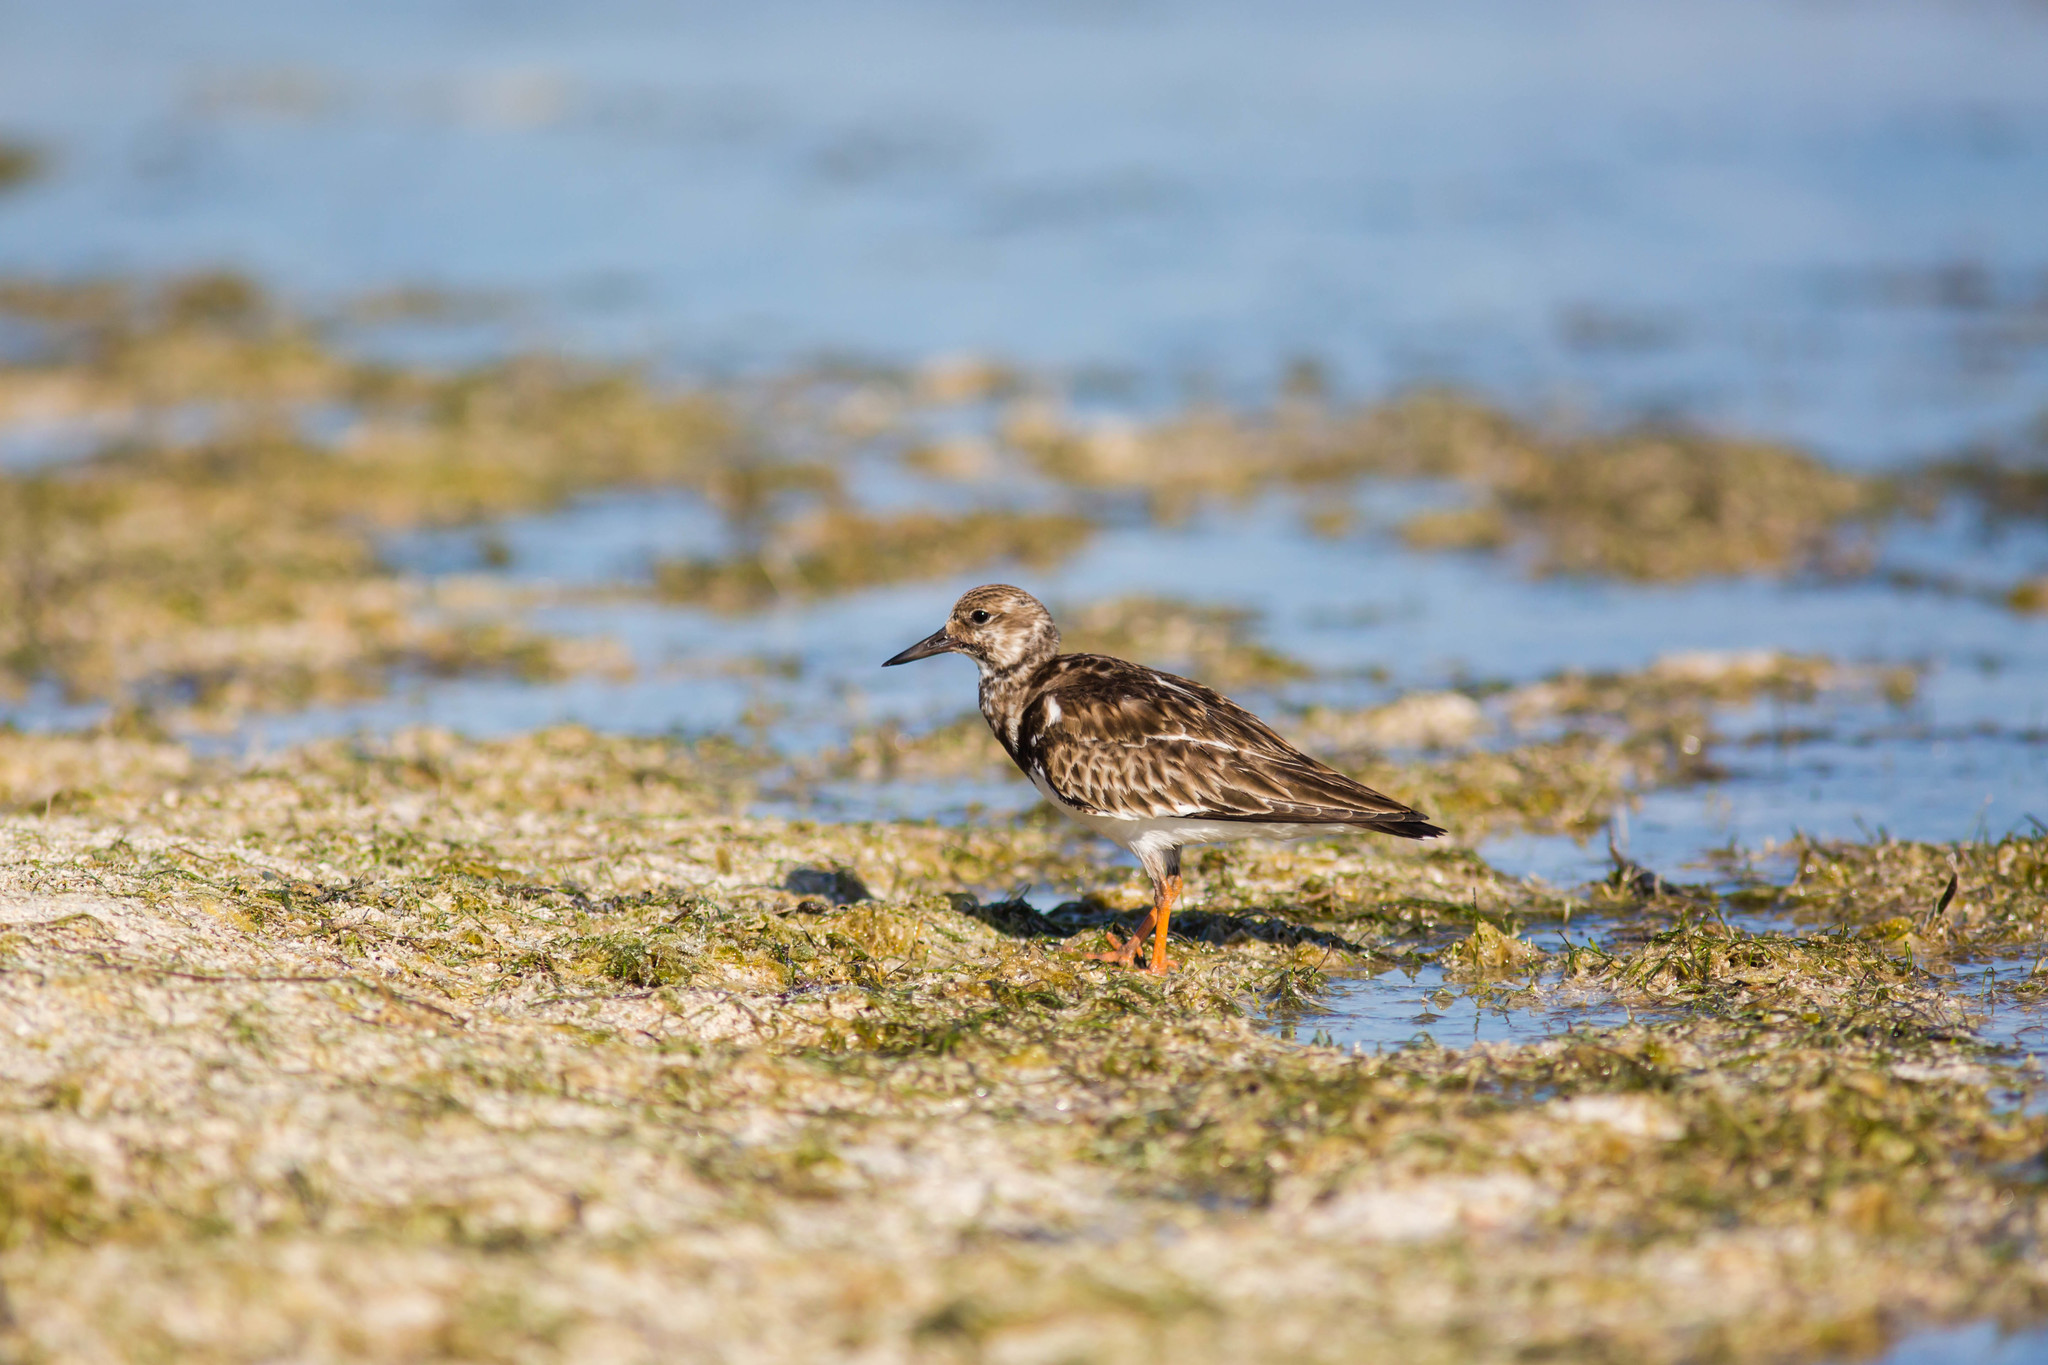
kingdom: Animalia
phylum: Chordata
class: Aves
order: Charadriiformes
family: Scolopacidae
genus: Arenaria
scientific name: Arenaria interpres
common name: Ruddy turnstone
